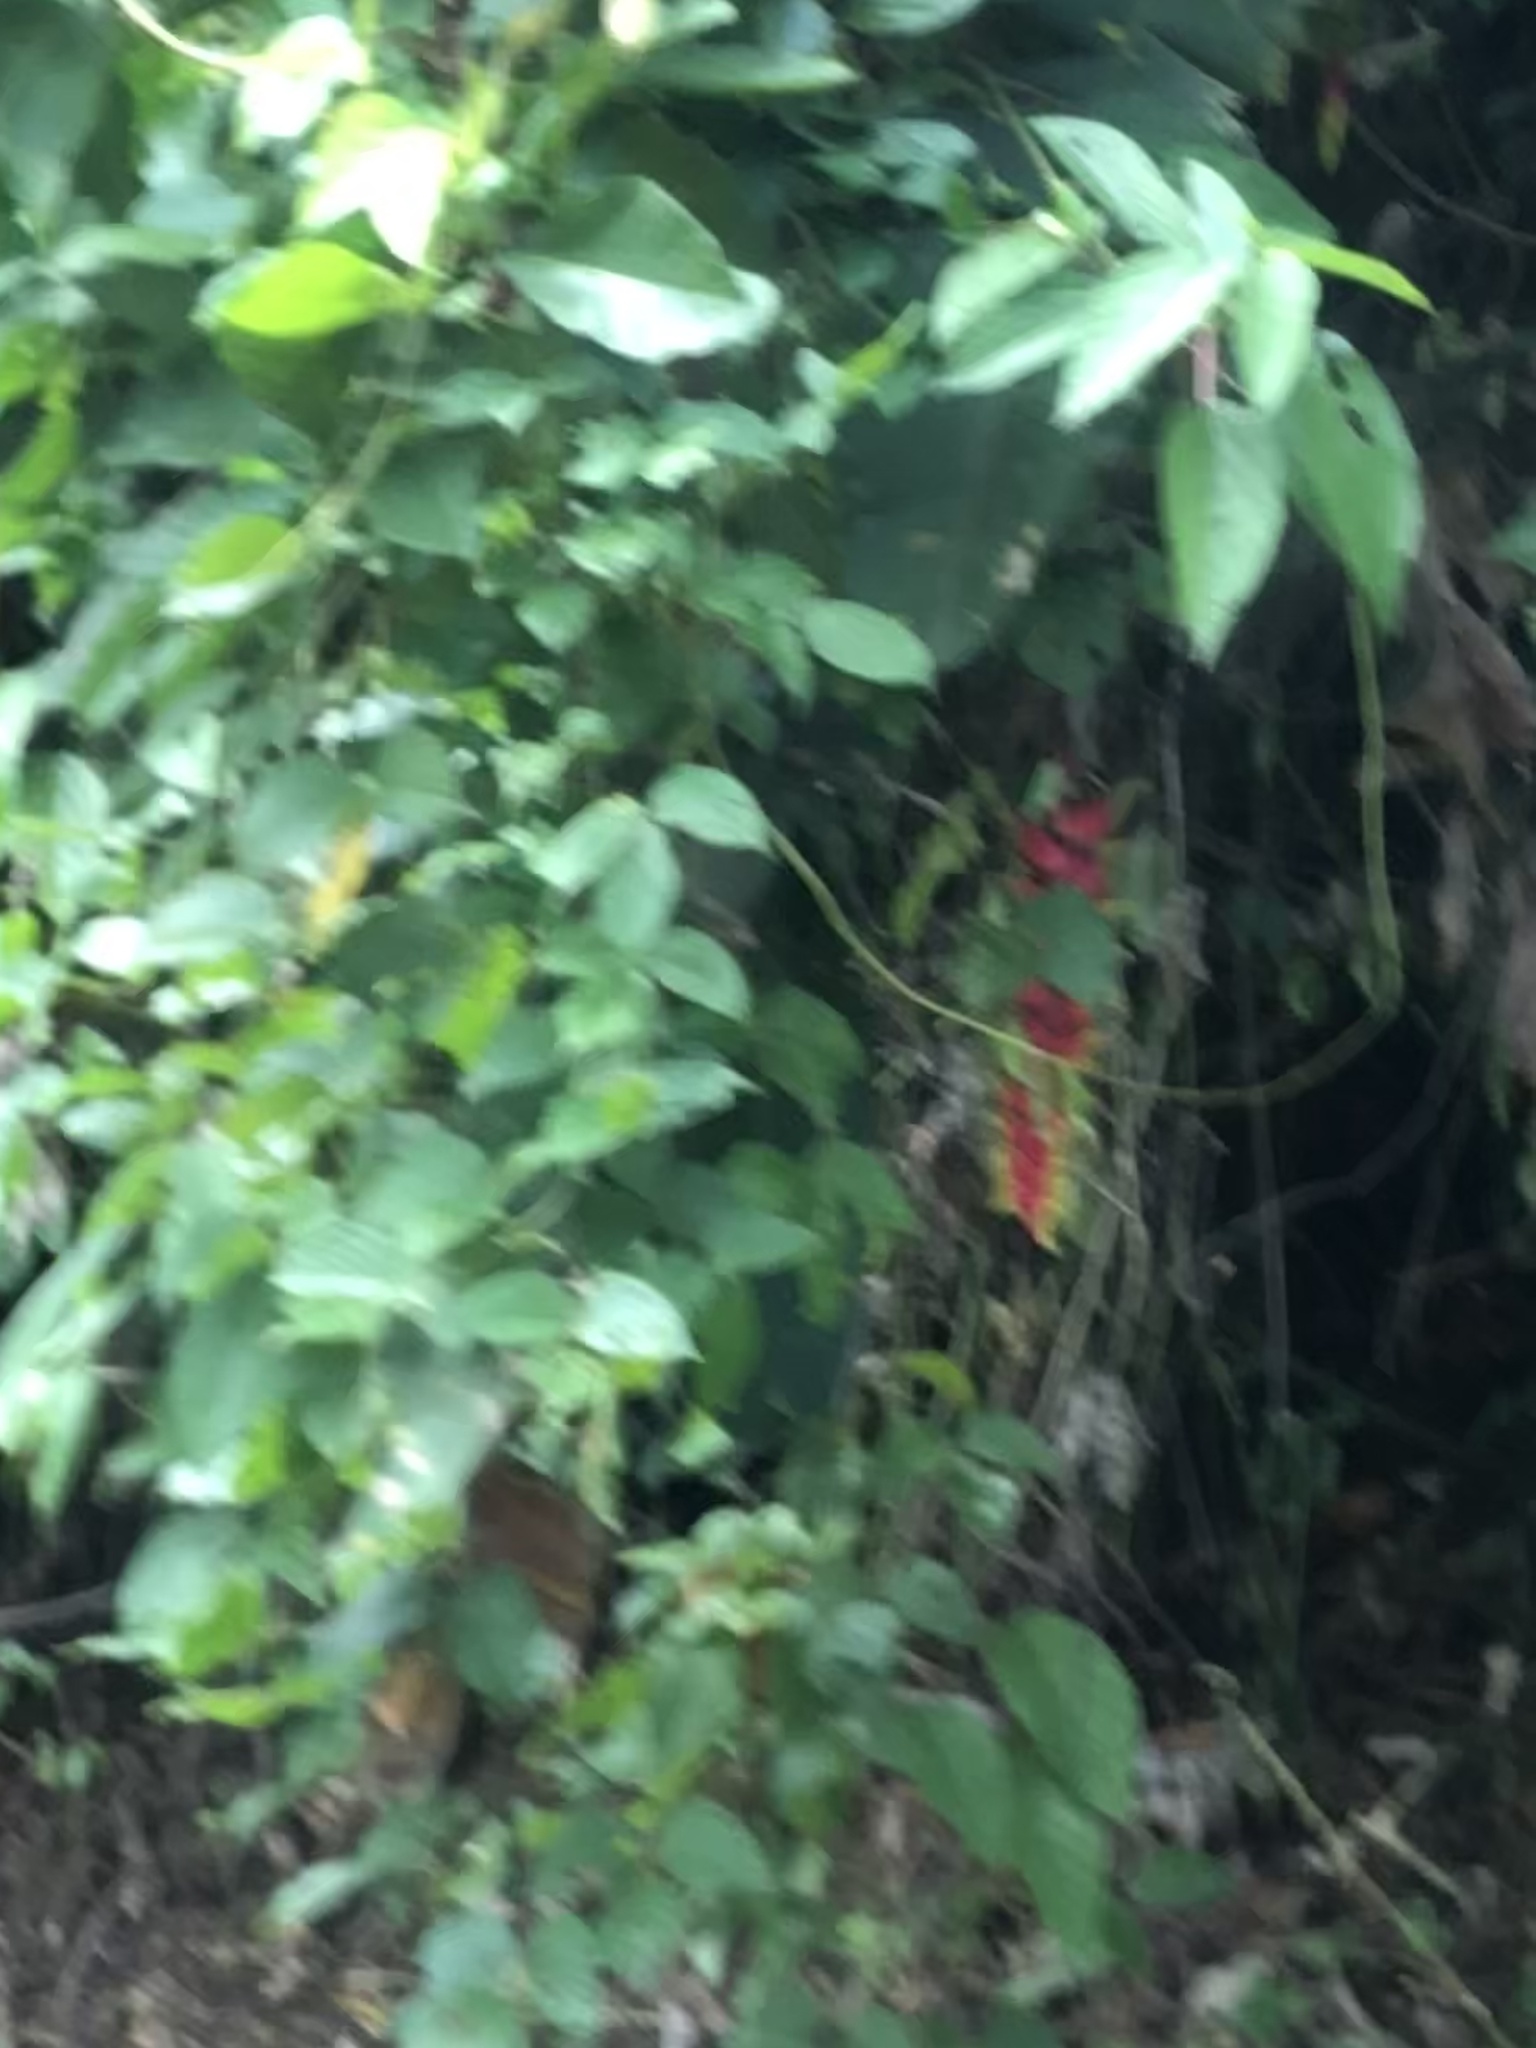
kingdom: Plantae
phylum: Tracheophyta
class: Liliopsida
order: Zingiberales
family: Heliconiaceae
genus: Heliconia
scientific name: Heliconia rostrata
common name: False bird of paradise
